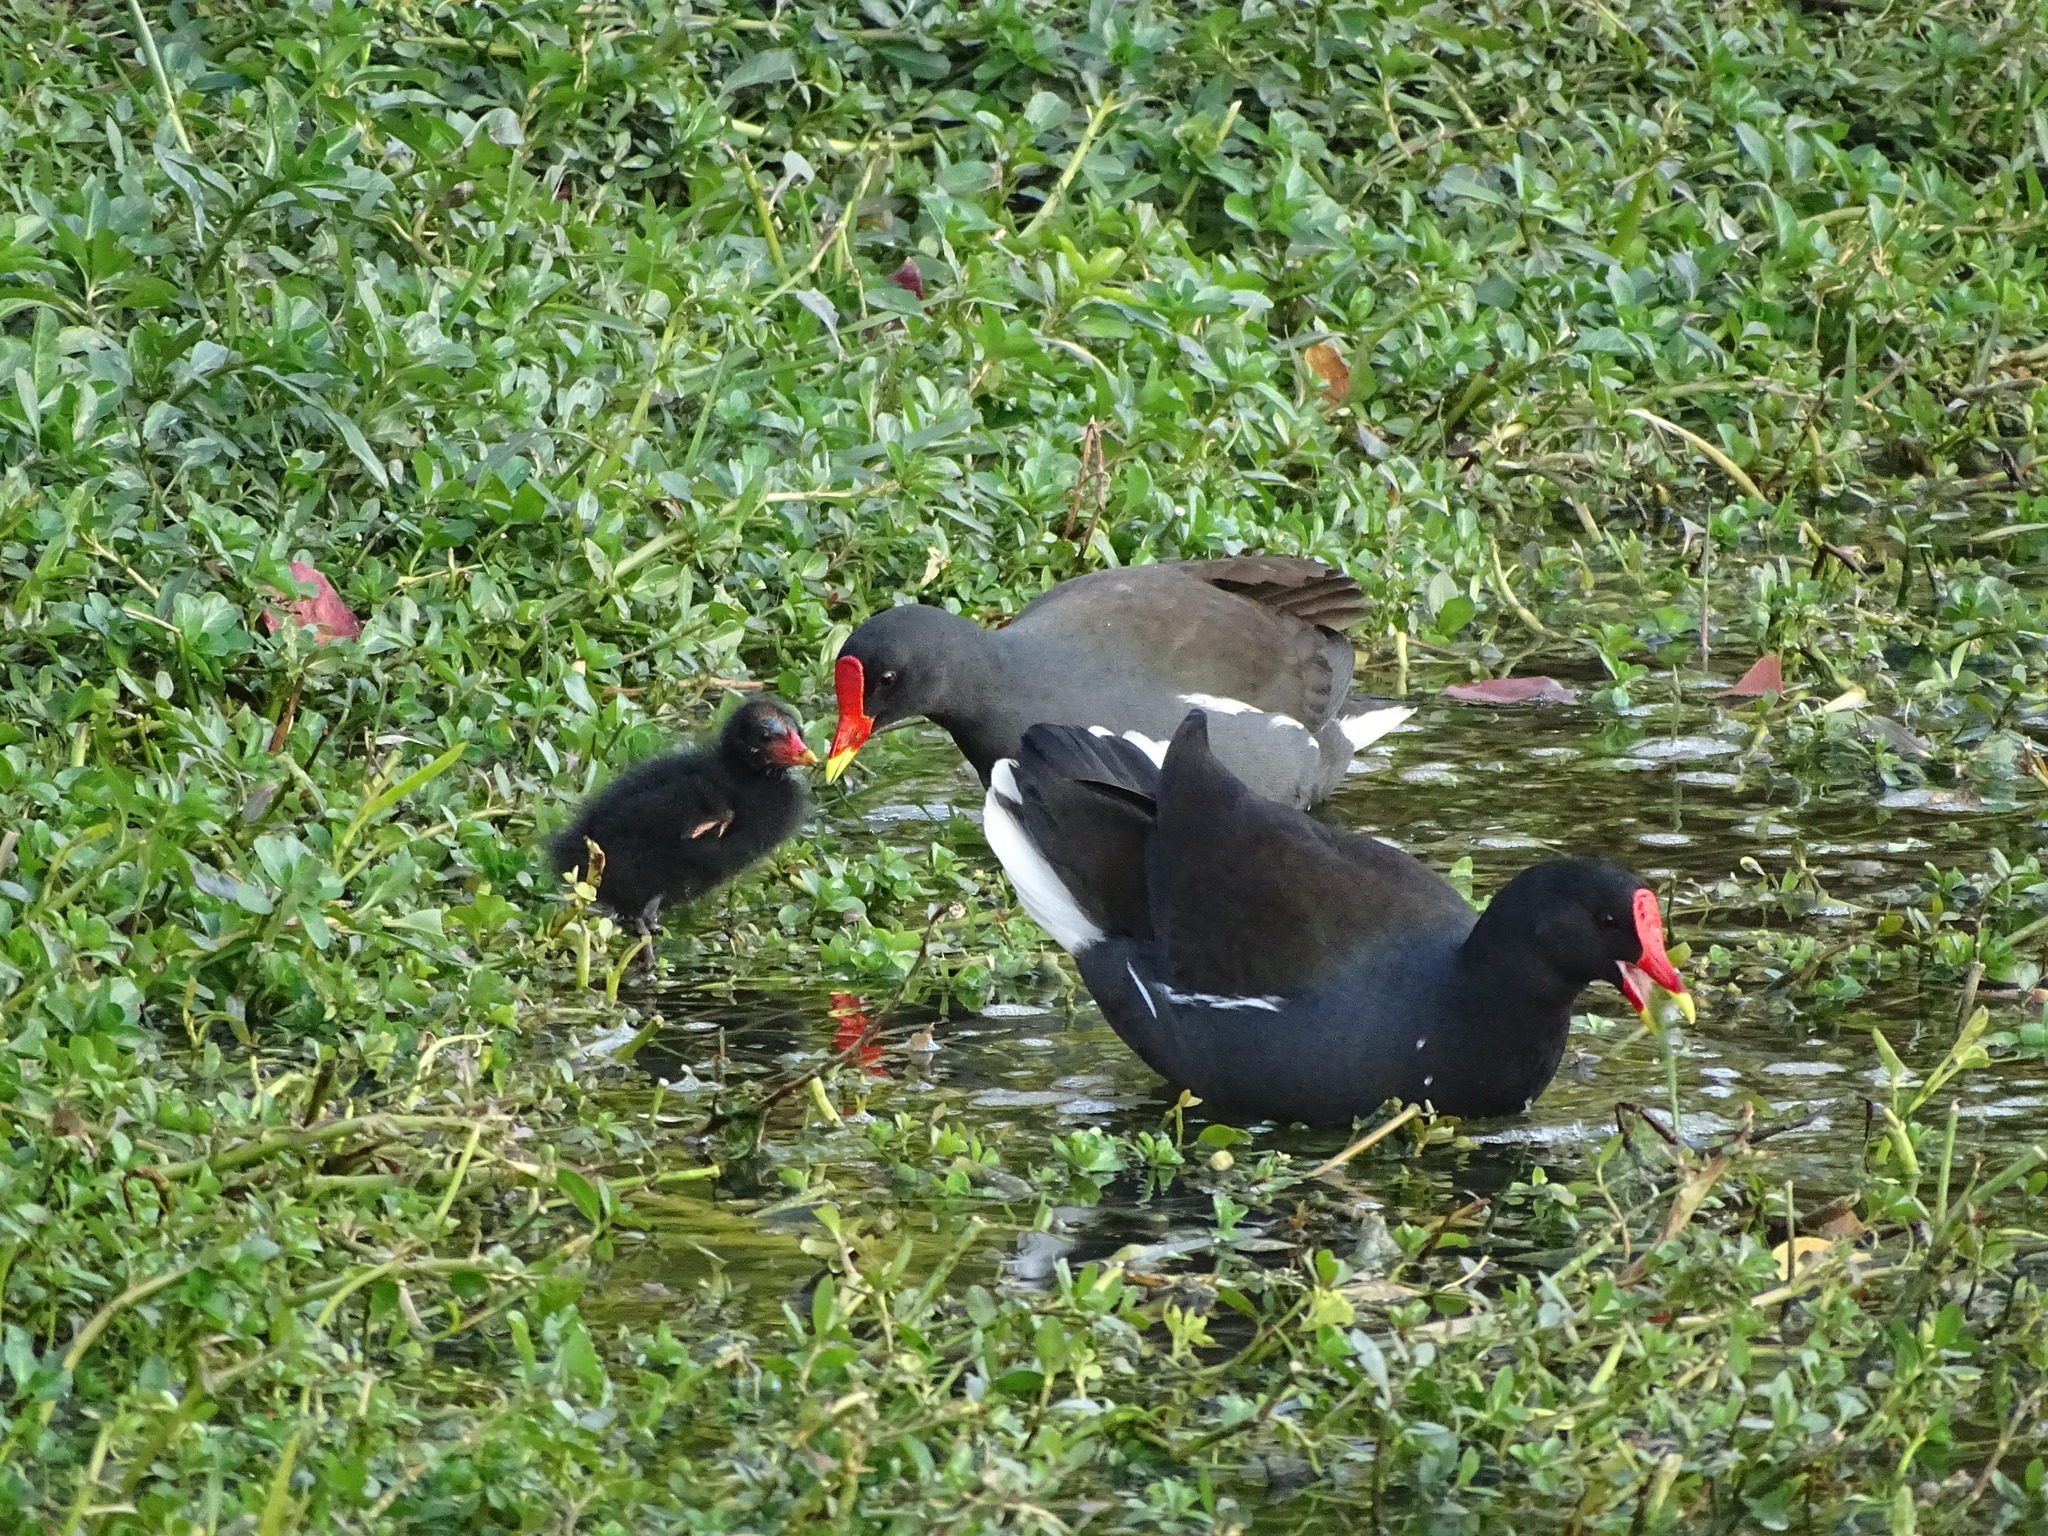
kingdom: Animalia
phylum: Chordata
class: Aves
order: Gruiformes
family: Rallidae
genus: Gallinula
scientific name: Gallinula chloropus
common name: Common moorhen
